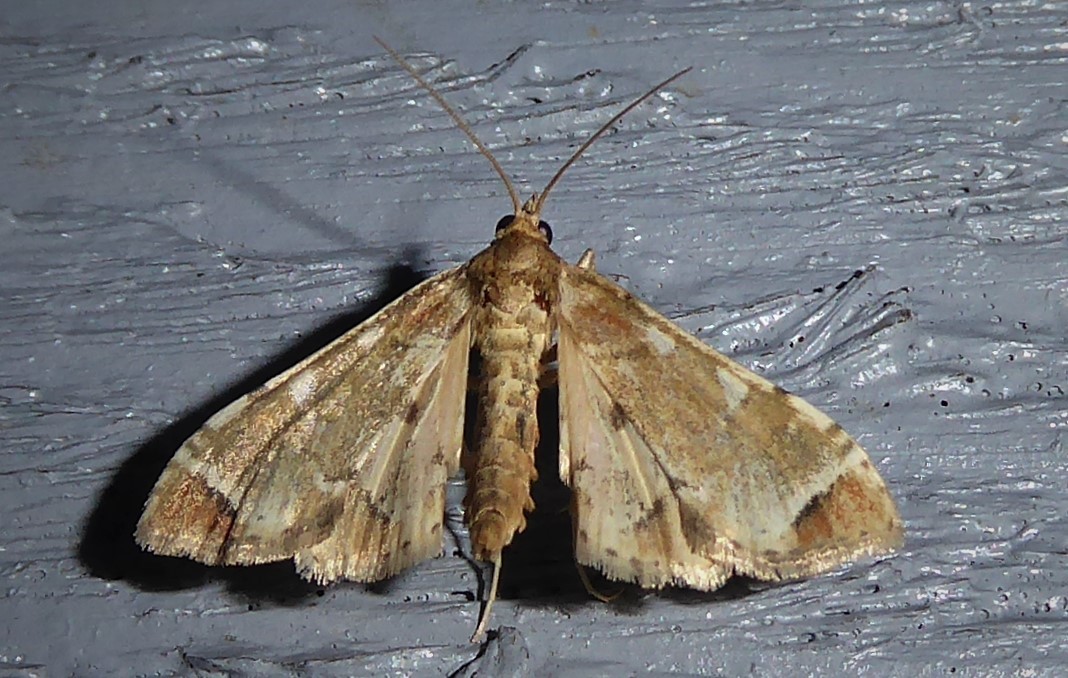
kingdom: Animalia
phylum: Arthropoda
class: Insecta
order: Lepidoptera
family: Crambidae
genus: Sceliodes
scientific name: Sceliodes cordalis
